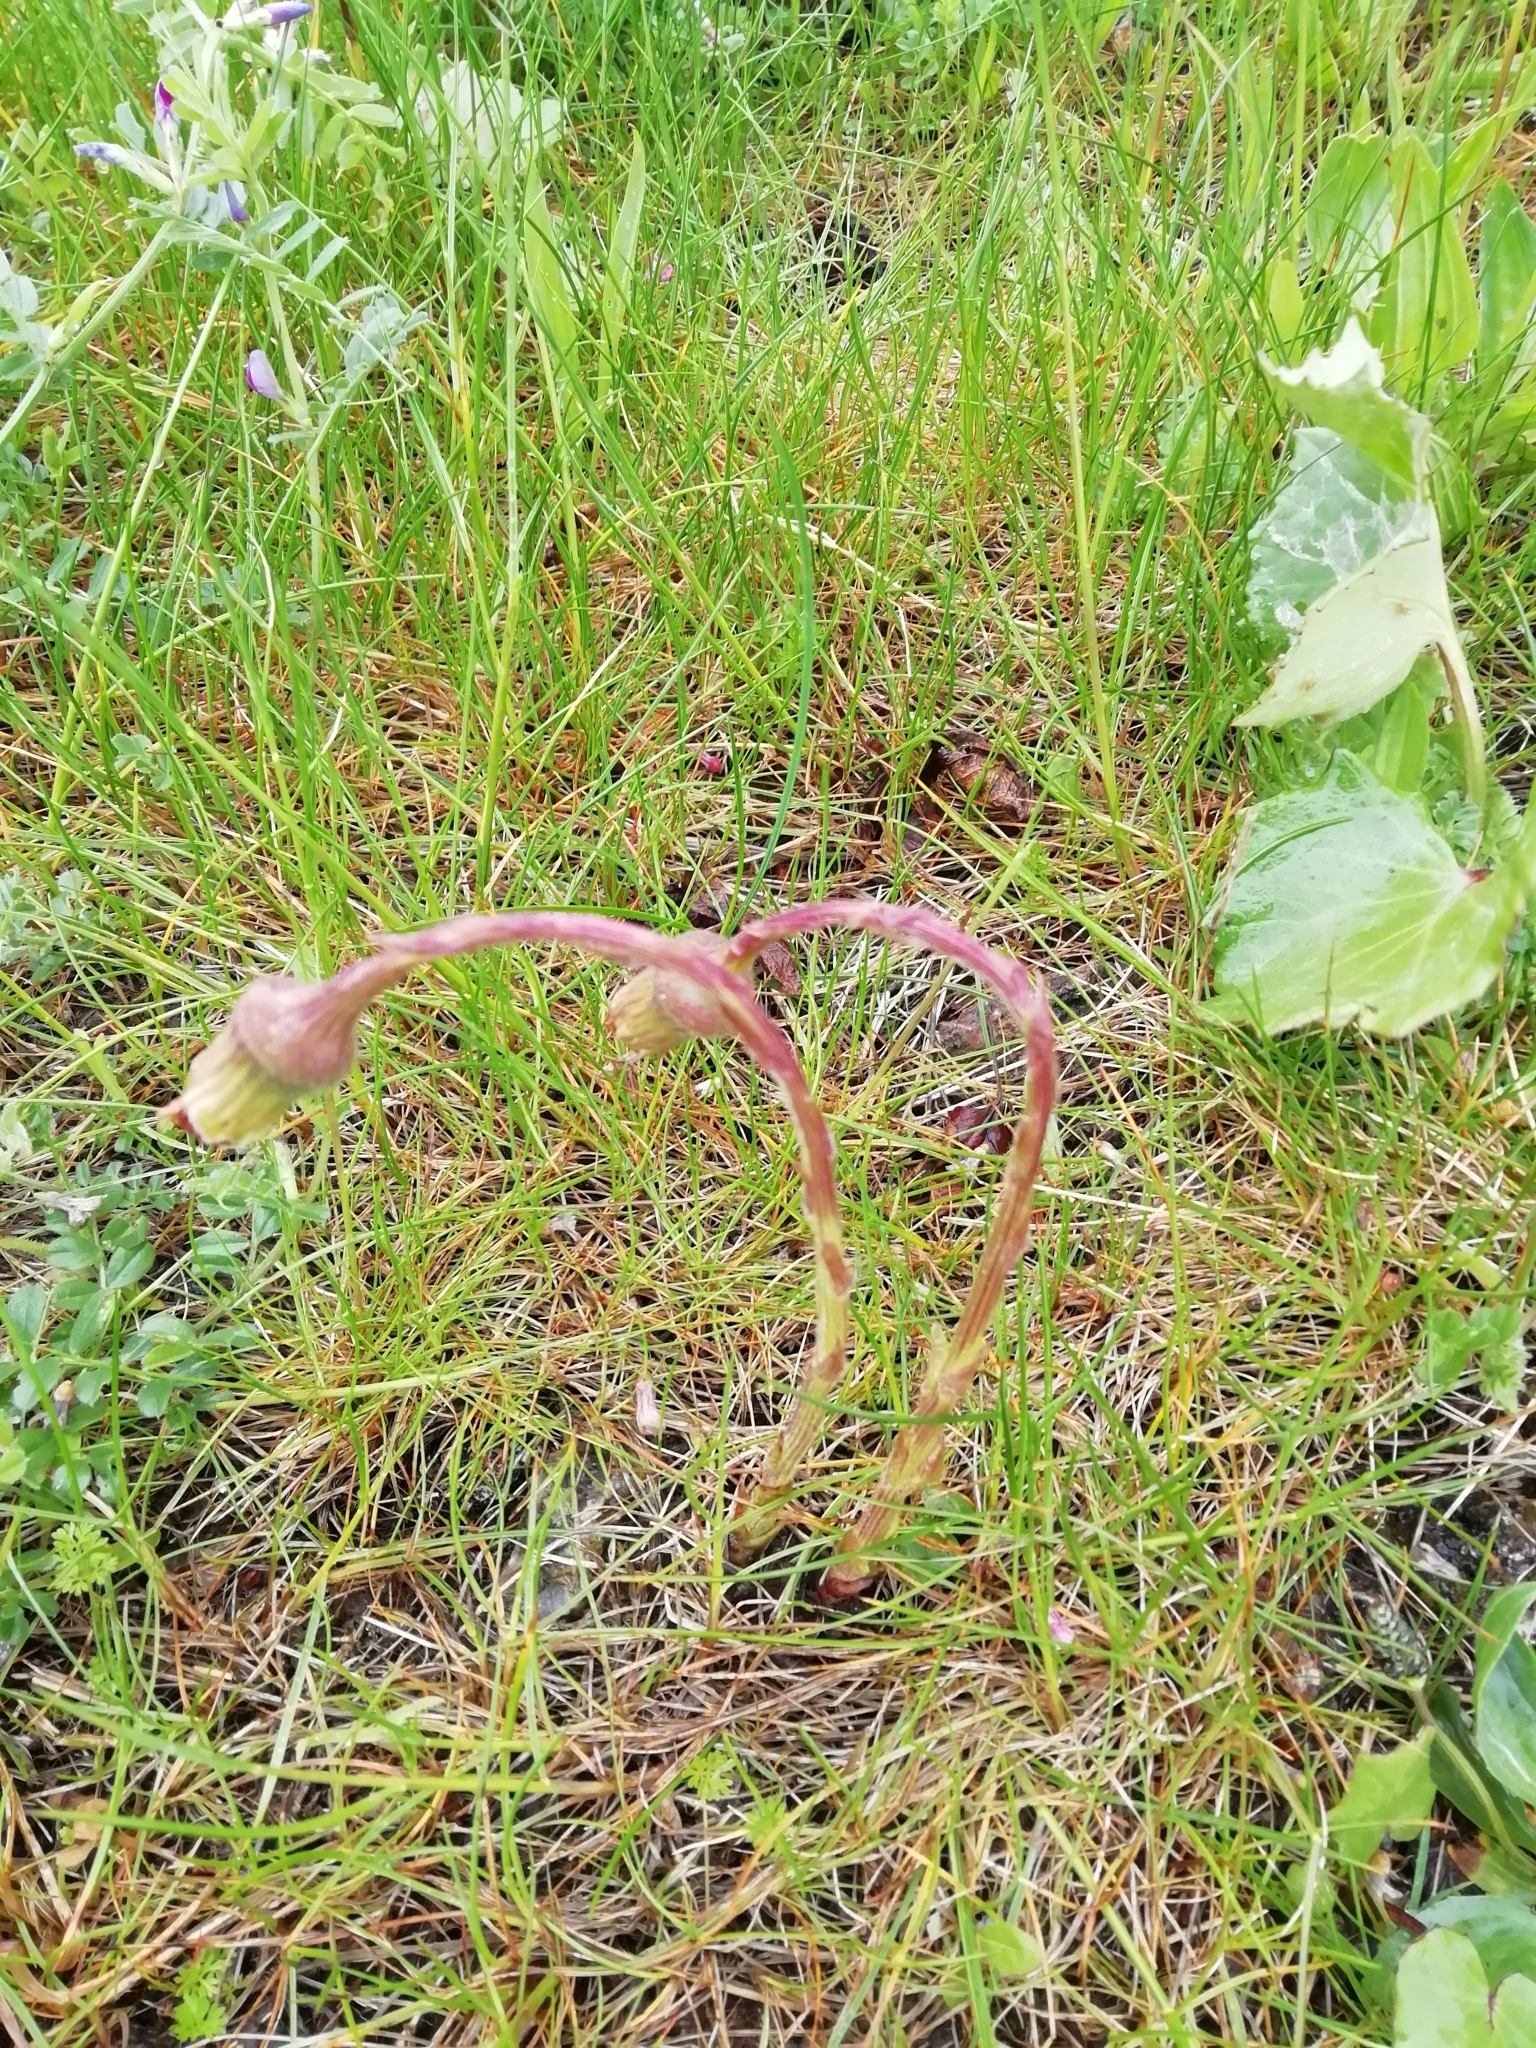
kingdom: Plantae
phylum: Tracheophyta
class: Magnoliopsida
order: Asterales
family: Asteraceae
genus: Tussilago
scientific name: Tussilago farfara
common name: Coltsfoot
